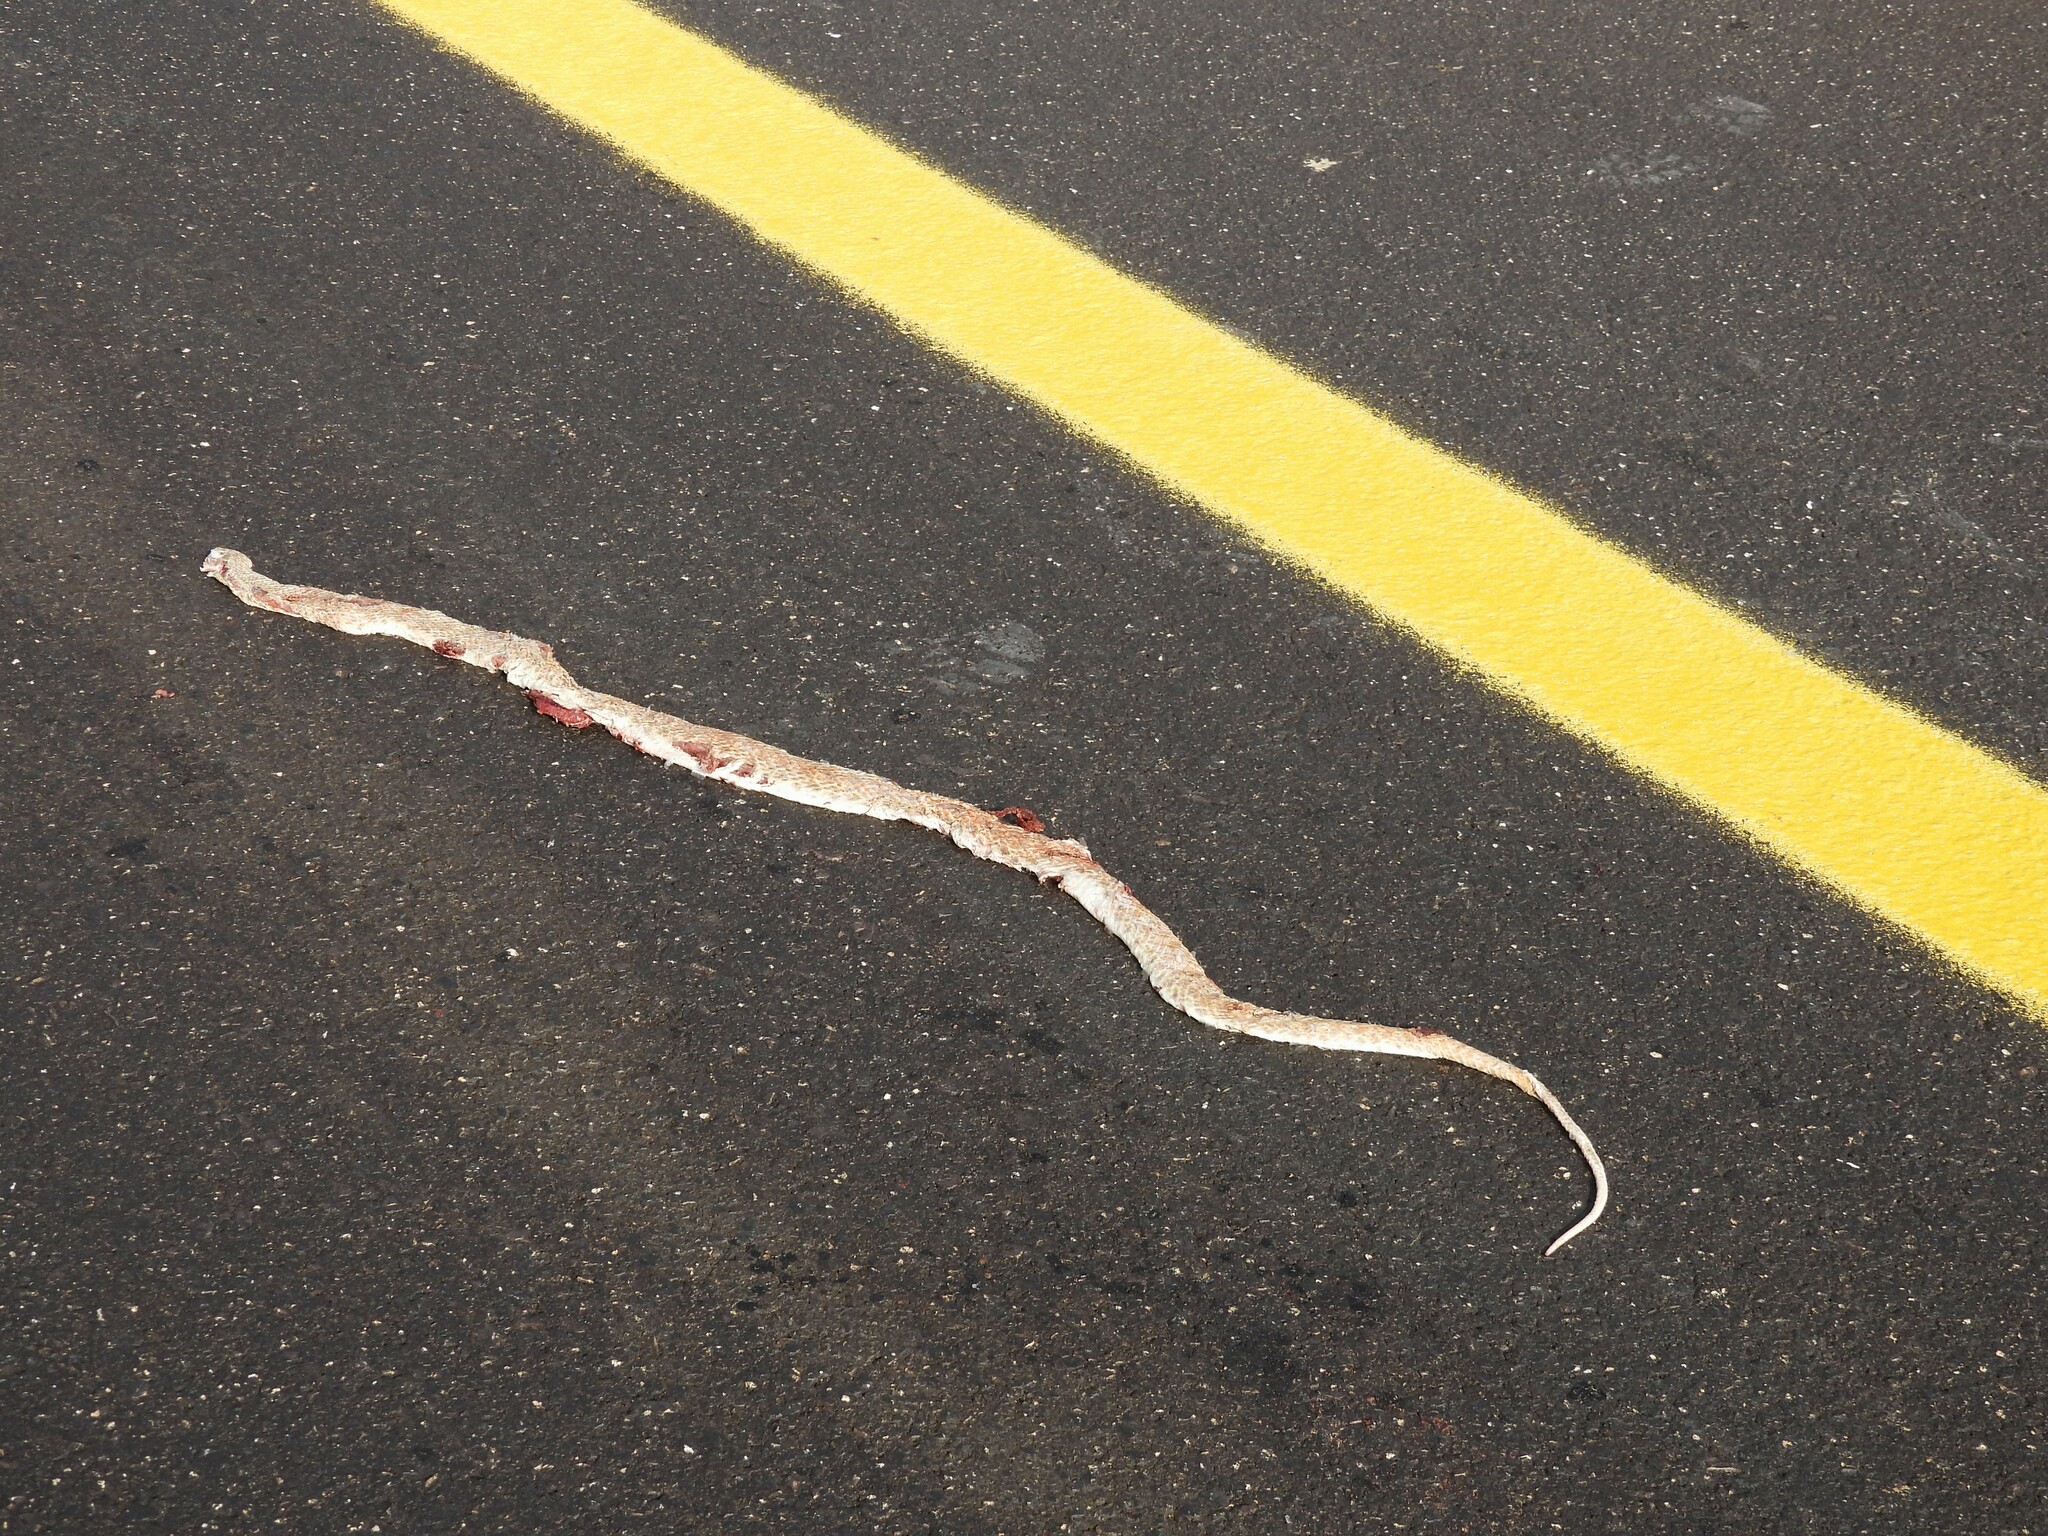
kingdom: Animalia
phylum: Chordata
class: Squamata
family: Psammophiidae
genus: Malpolon
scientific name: Malpolon moilensis
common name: Moila snake
